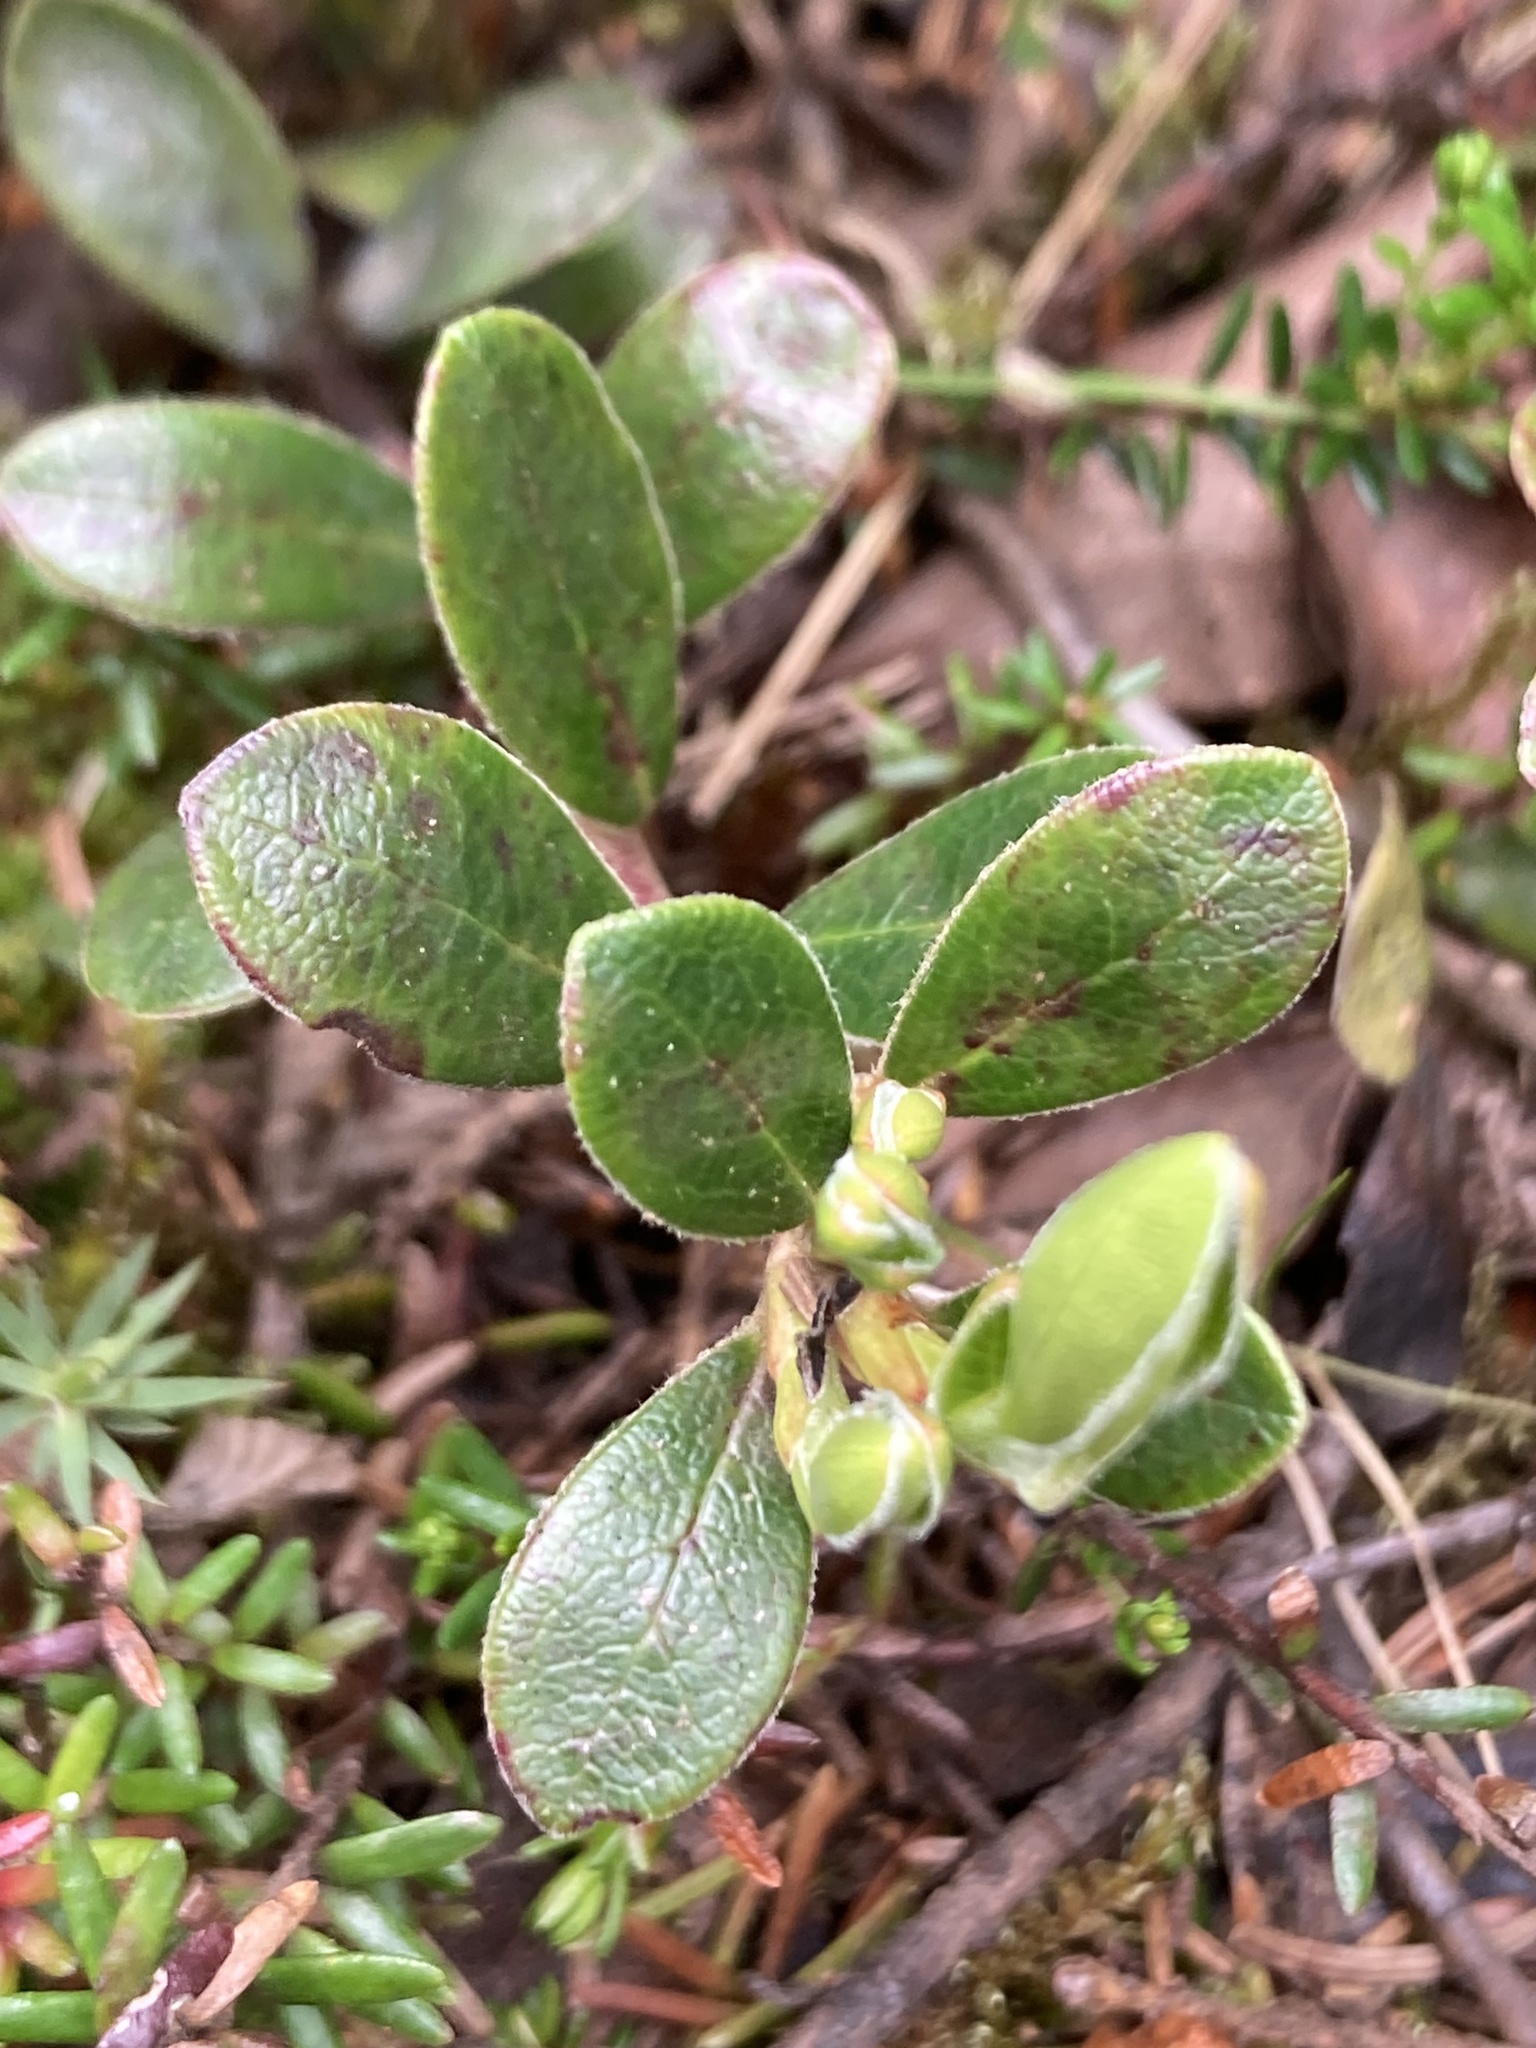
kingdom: Plantae
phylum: Tracheophyta
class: Magnoliopsida
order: Ericales
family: Ericaceae
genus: Arctostaphylos
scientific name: Arctostaphylos uva-ursi
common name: Bearberry
